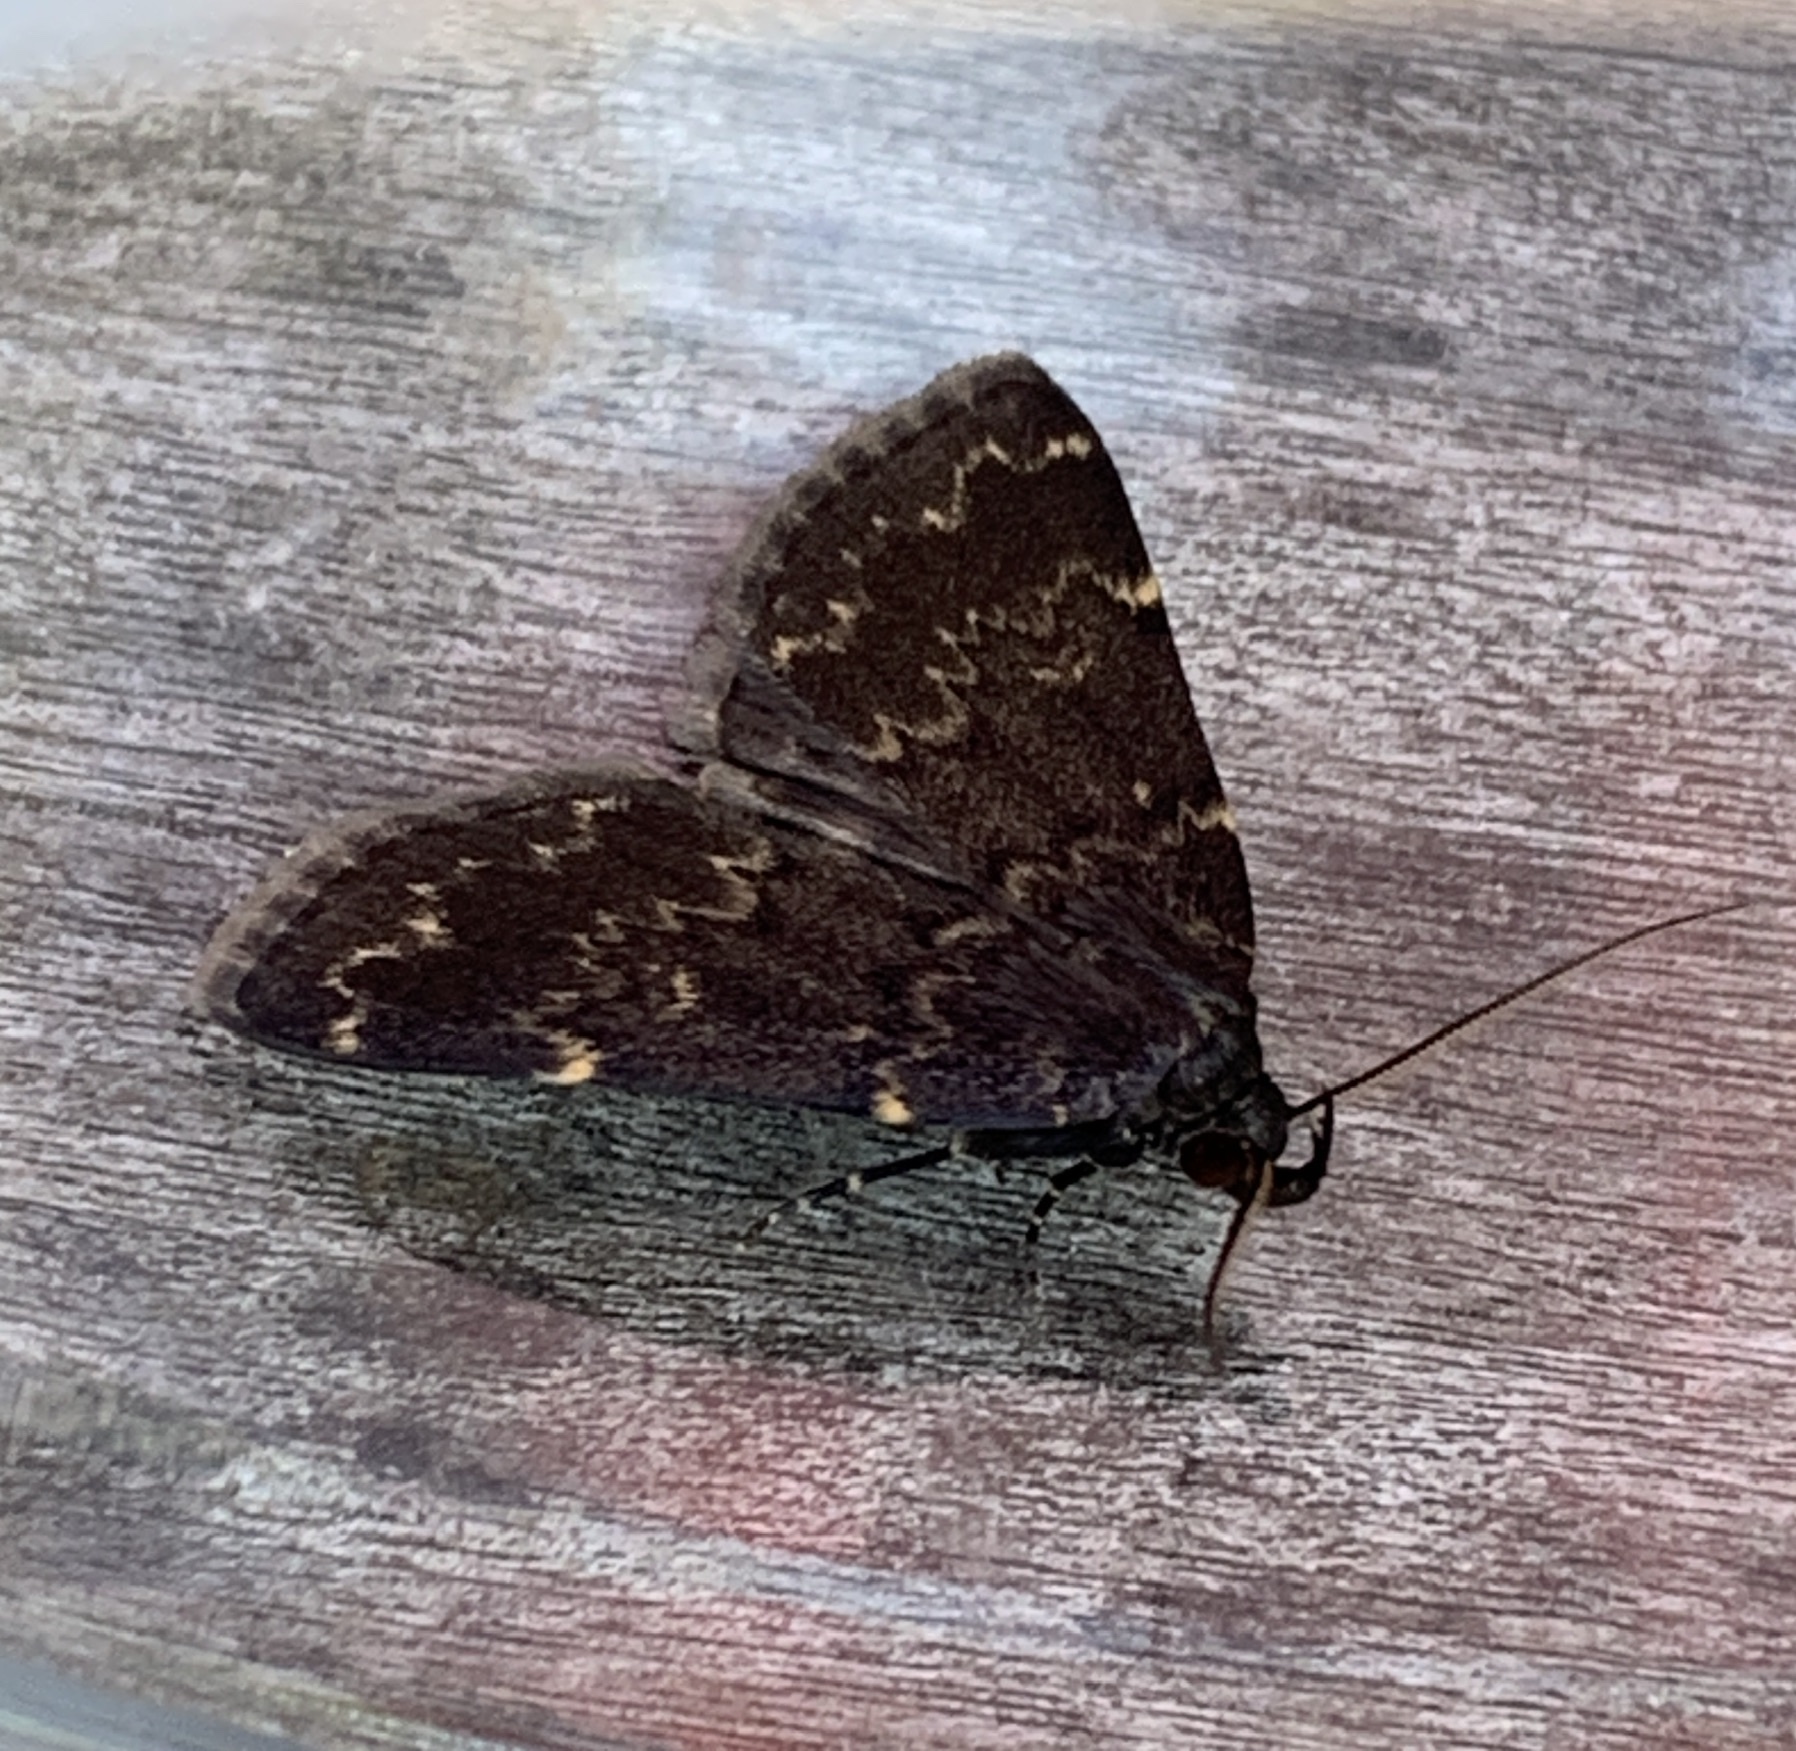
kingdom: Animalia
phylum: Arthropoda
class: Insecta
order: Lepidoptera
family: Erebidae
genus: Idia
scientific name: Idia lubricalis
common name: Twin-striped tabby
